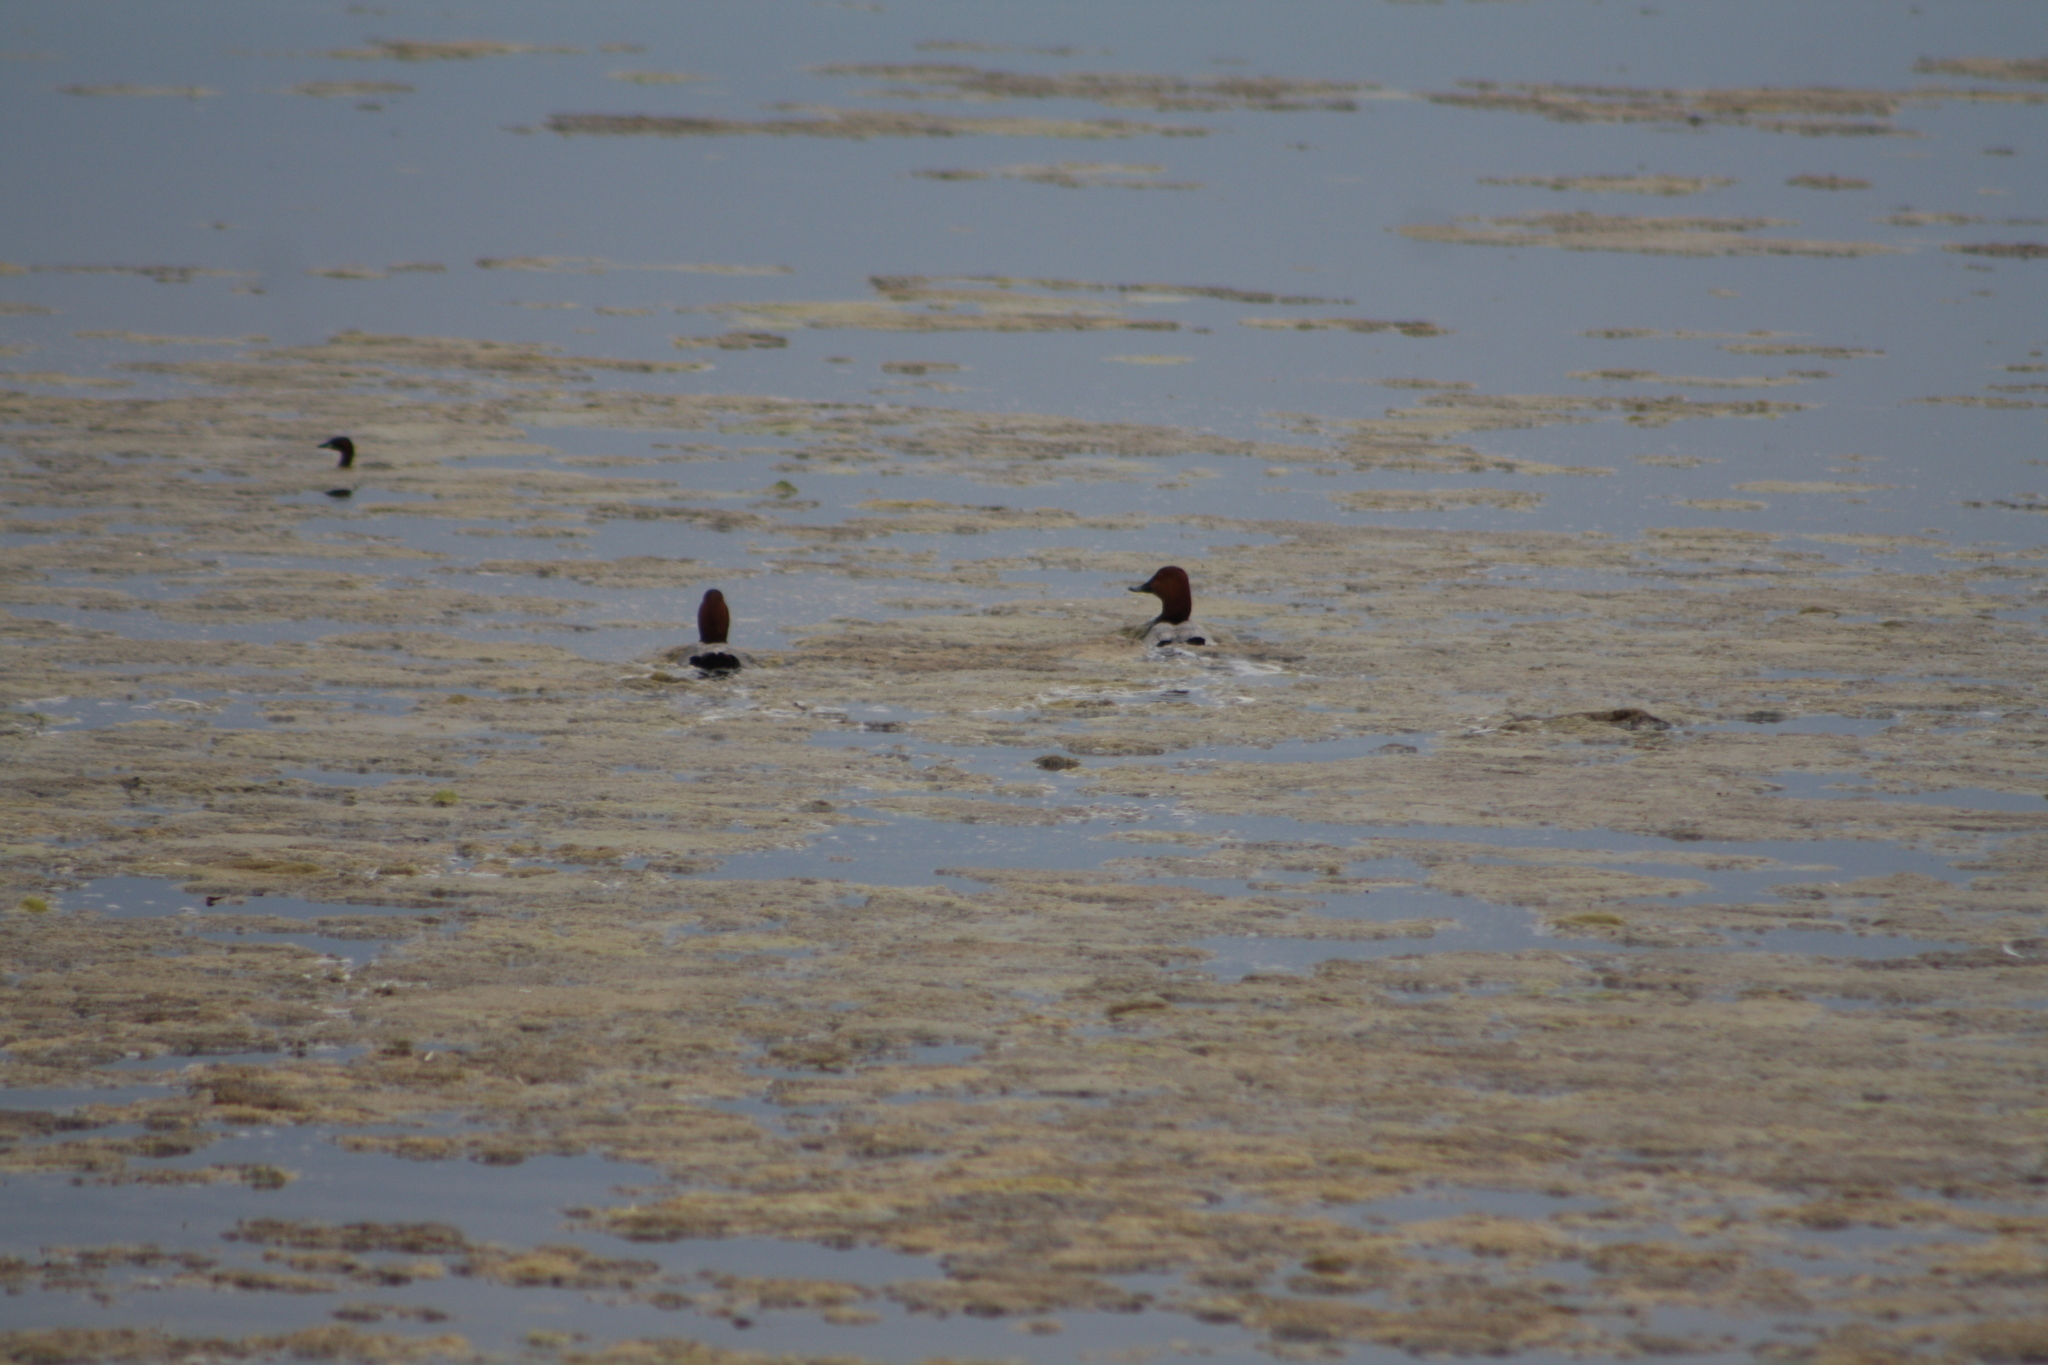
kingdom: Animalia
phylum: Chordata
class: Aves
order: Anseriformes
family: Anatidae
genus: Aythya
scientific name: Aythya ferina
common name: Common pochard
